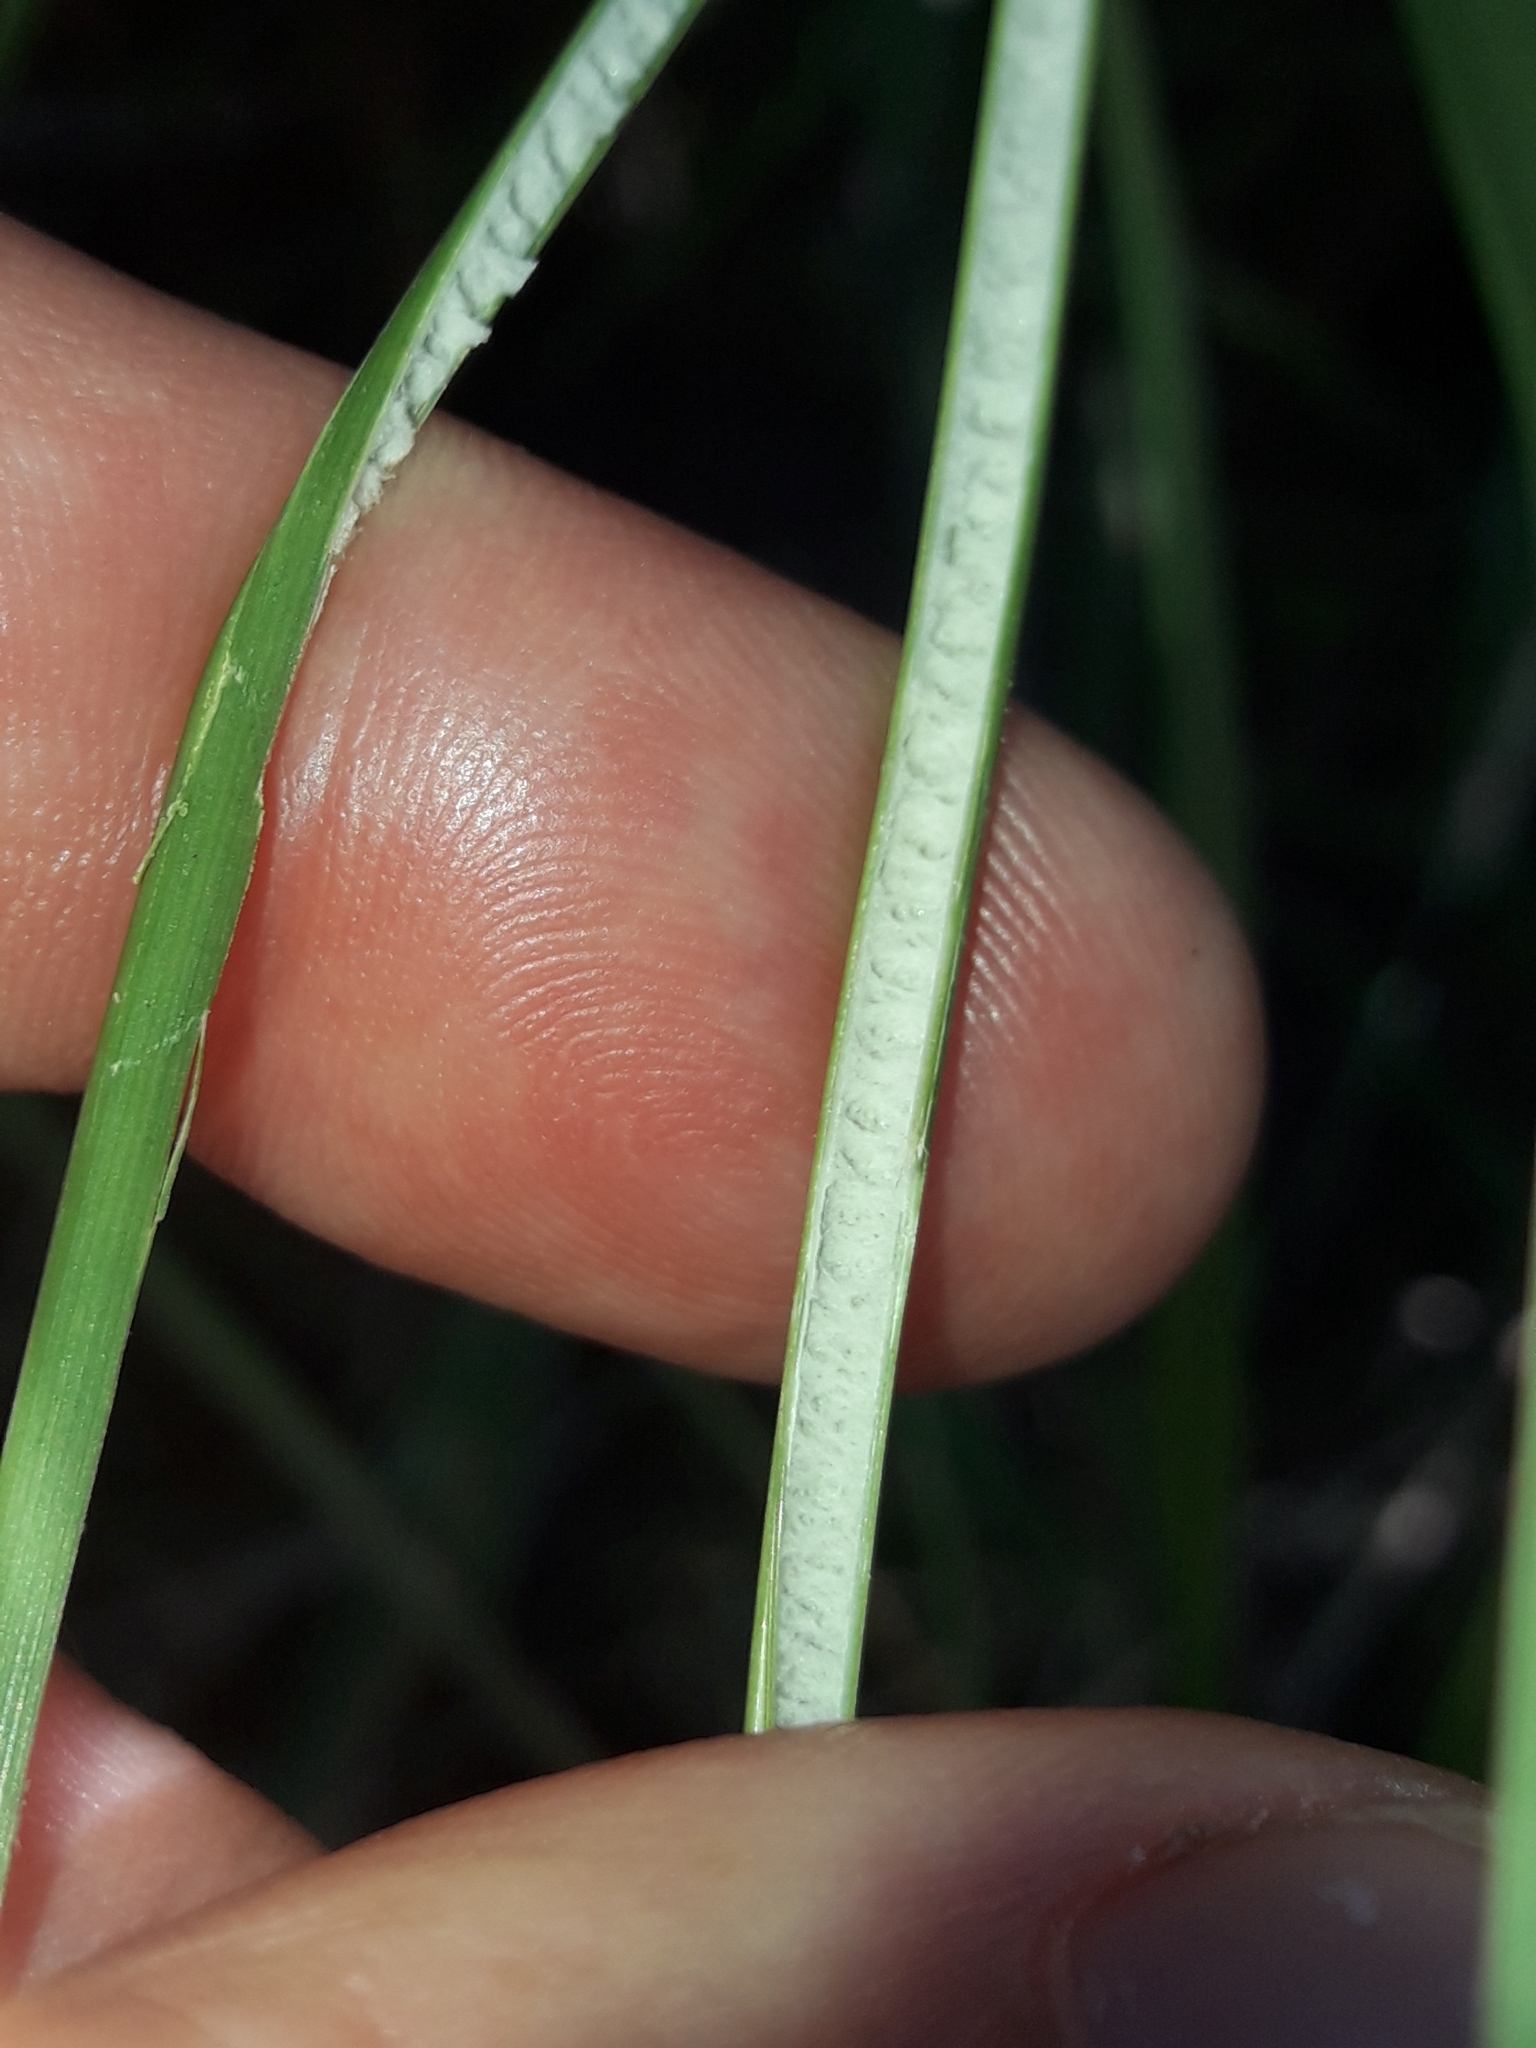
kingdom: Plantae
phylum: Tracheophyta
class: Liliopsida
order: Poales
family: Juncaceae
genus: Juncus
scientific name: Juncus usitatus
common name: Rush
